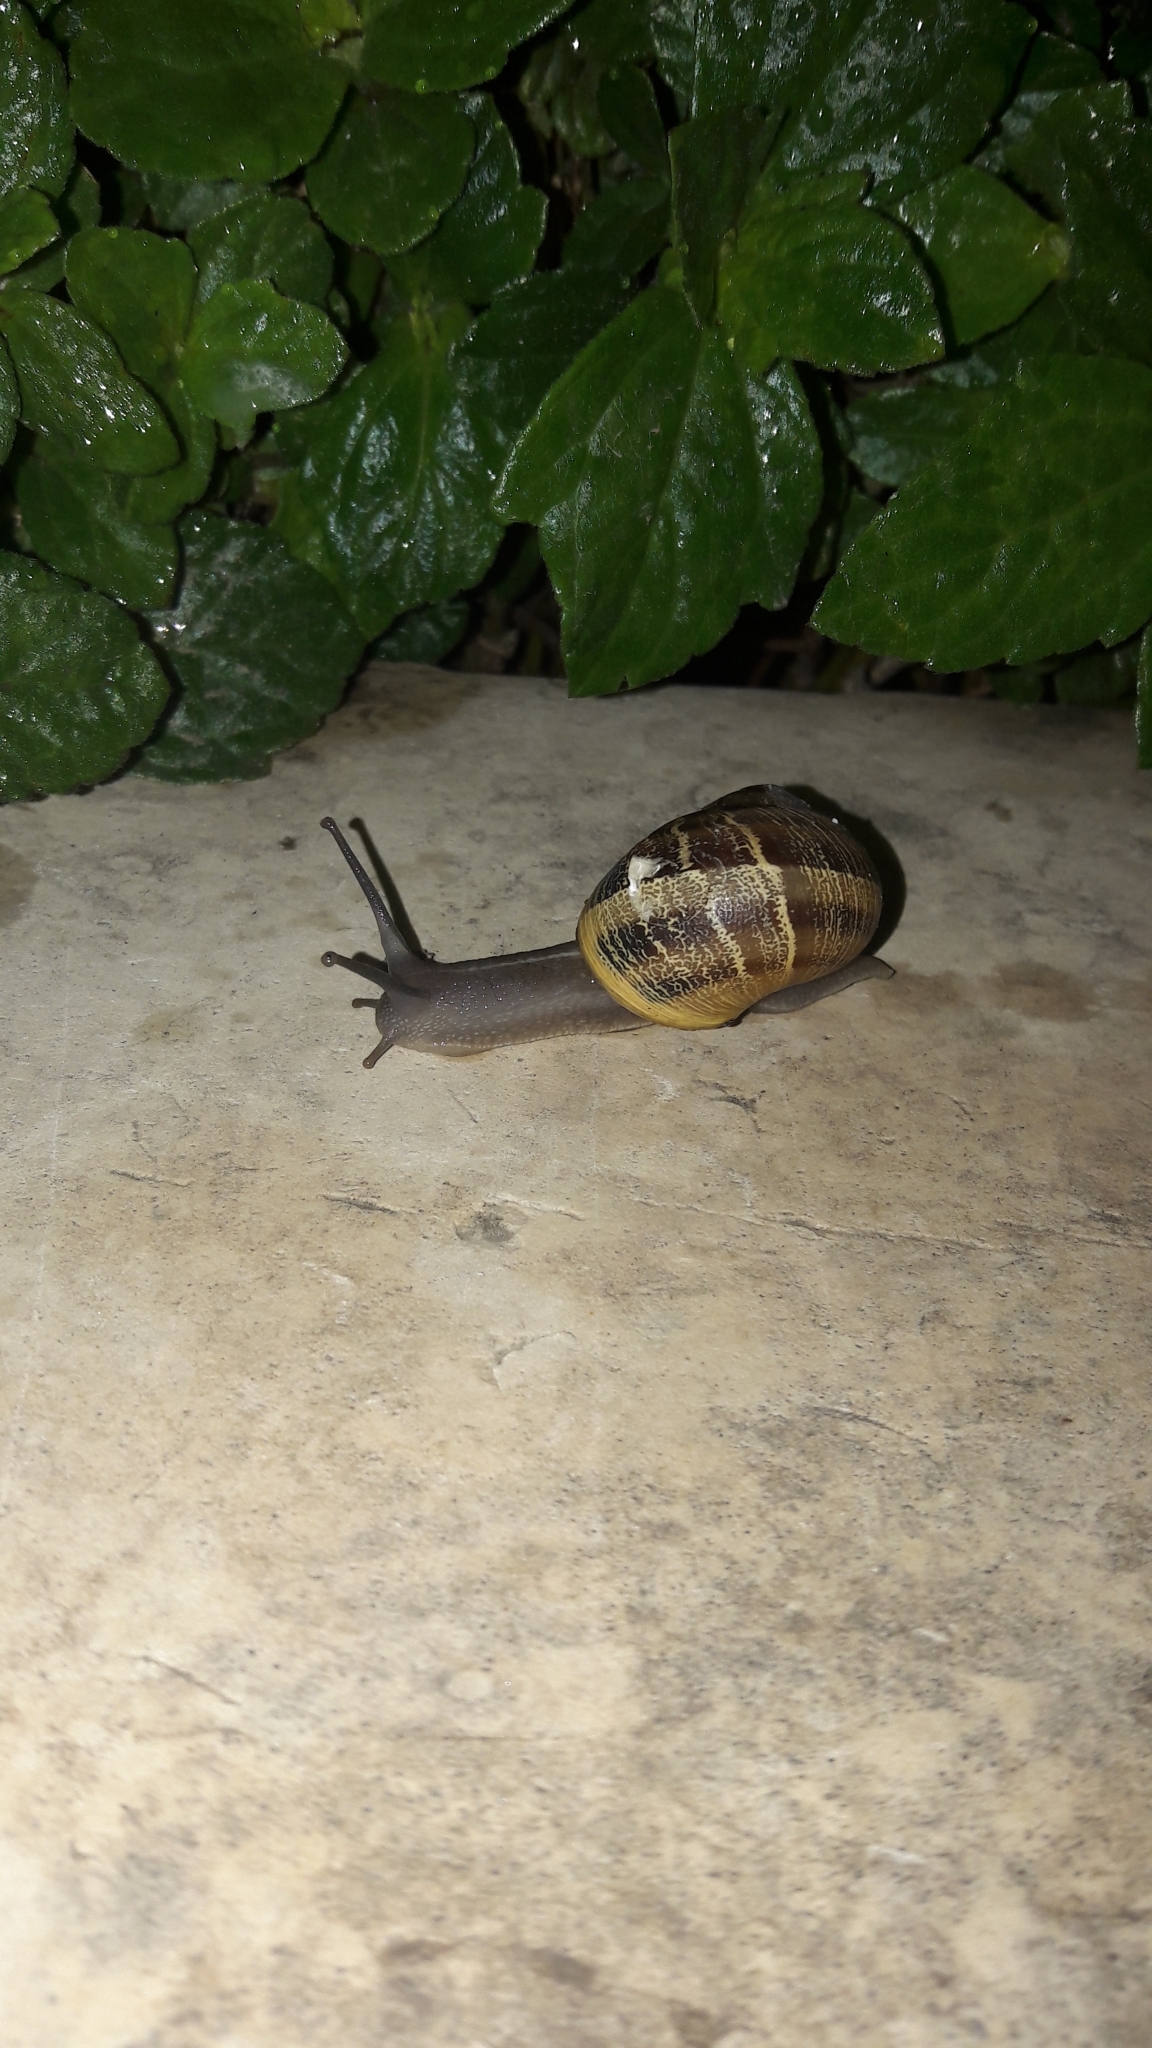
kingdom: Animalia
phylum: Mollusca
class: Gastropoda
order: Stylommatophora
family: Helicidae
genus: Cornu
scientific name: Cornu aspersum
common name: Brown garden snail
